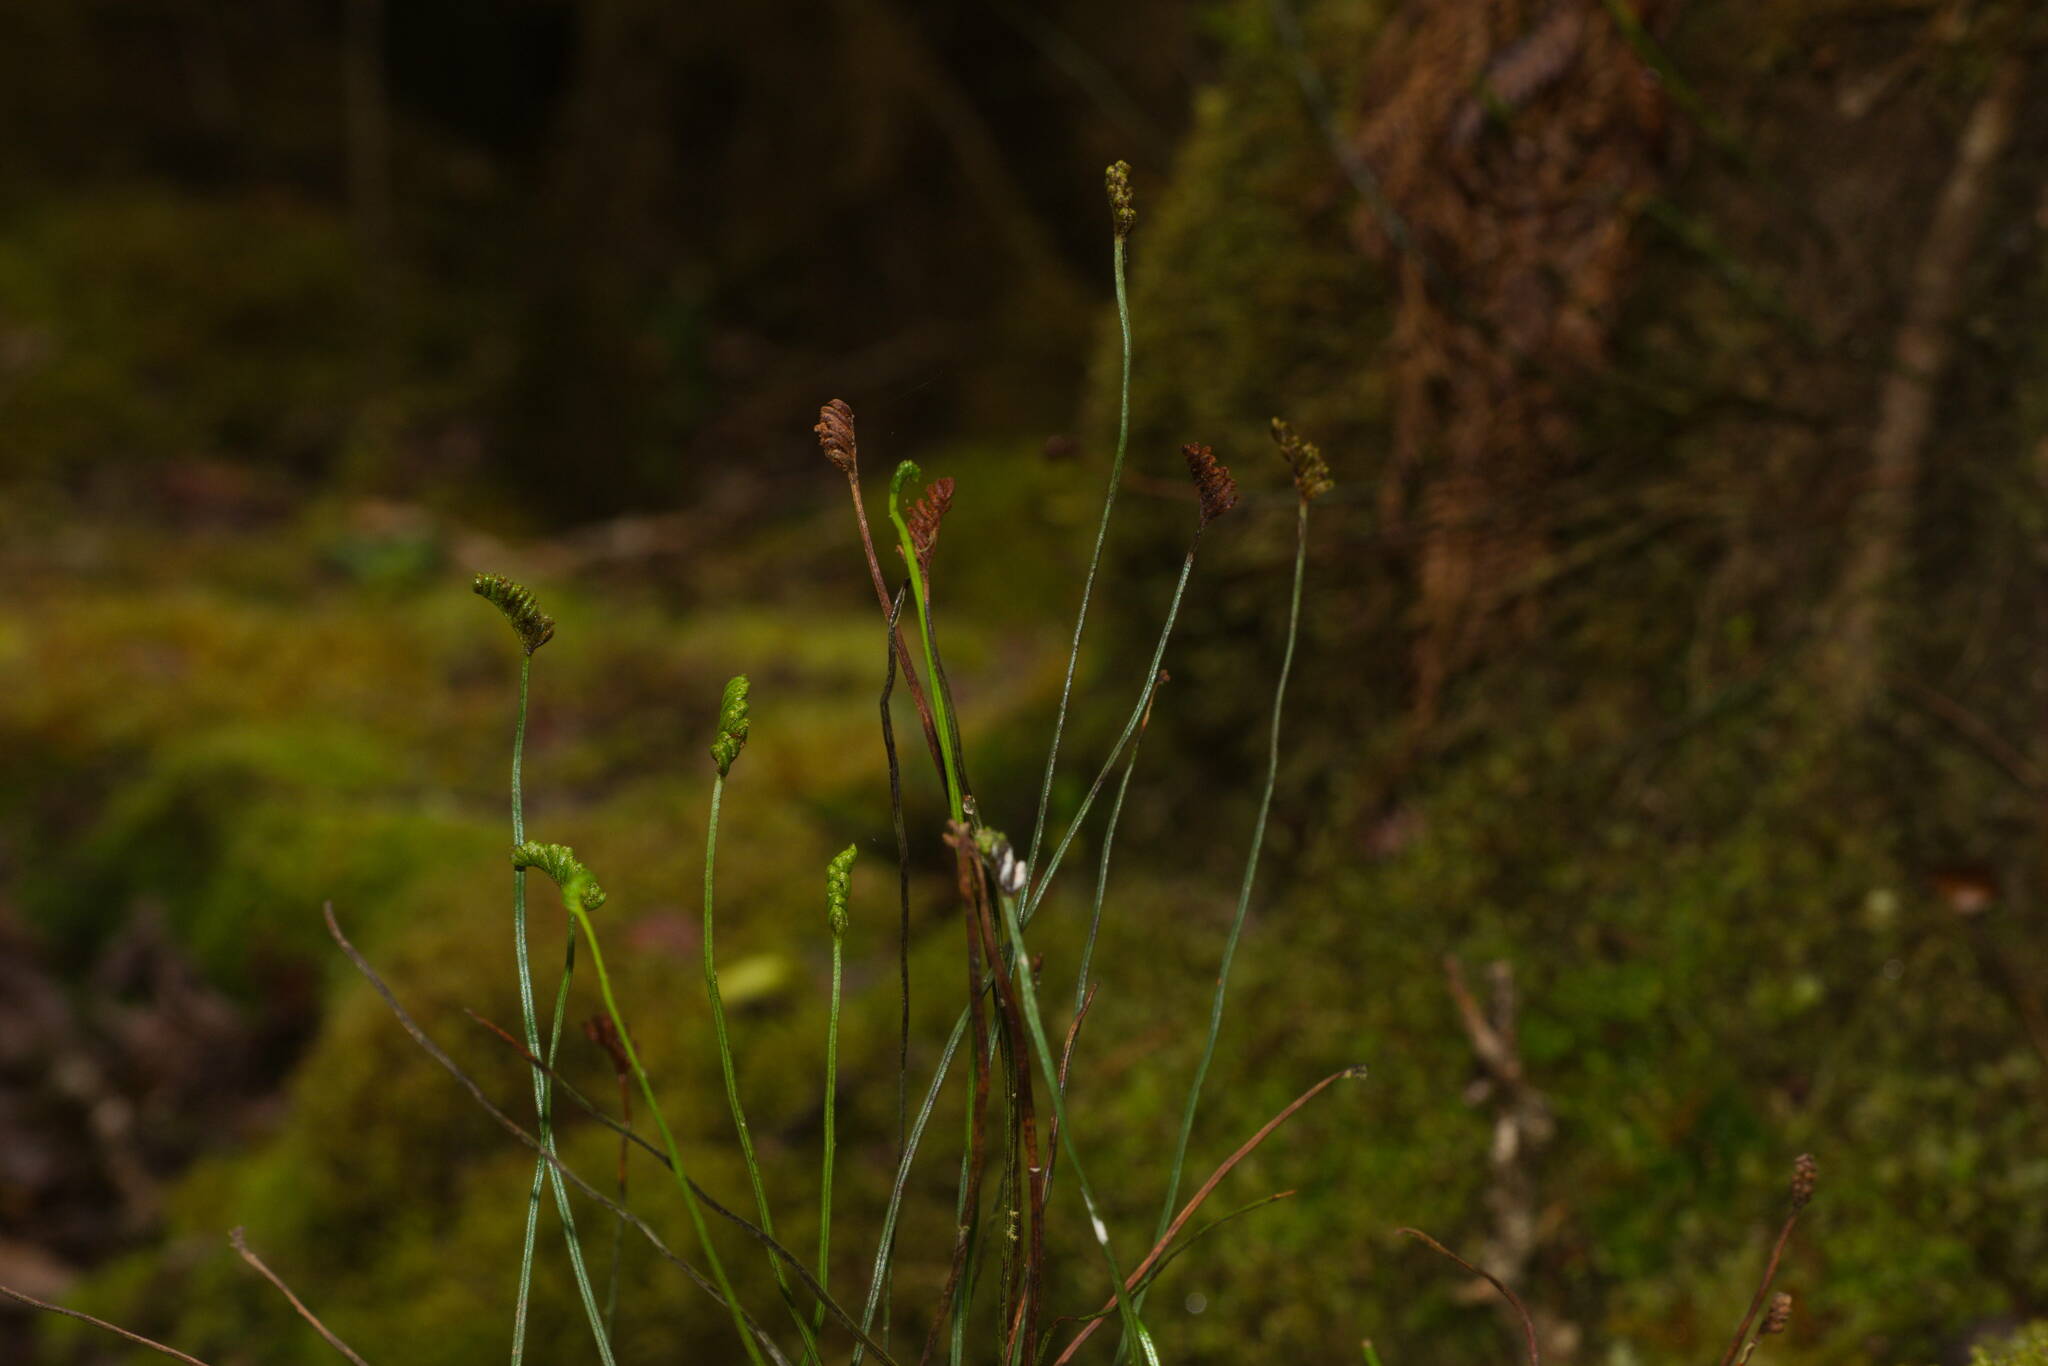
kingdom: Plantae
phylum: Tracheophyta
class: Polypodiopsida
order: Schizaeales
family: Schizaeaceae
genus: Microschizaea
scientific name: Microschizaea robusta
